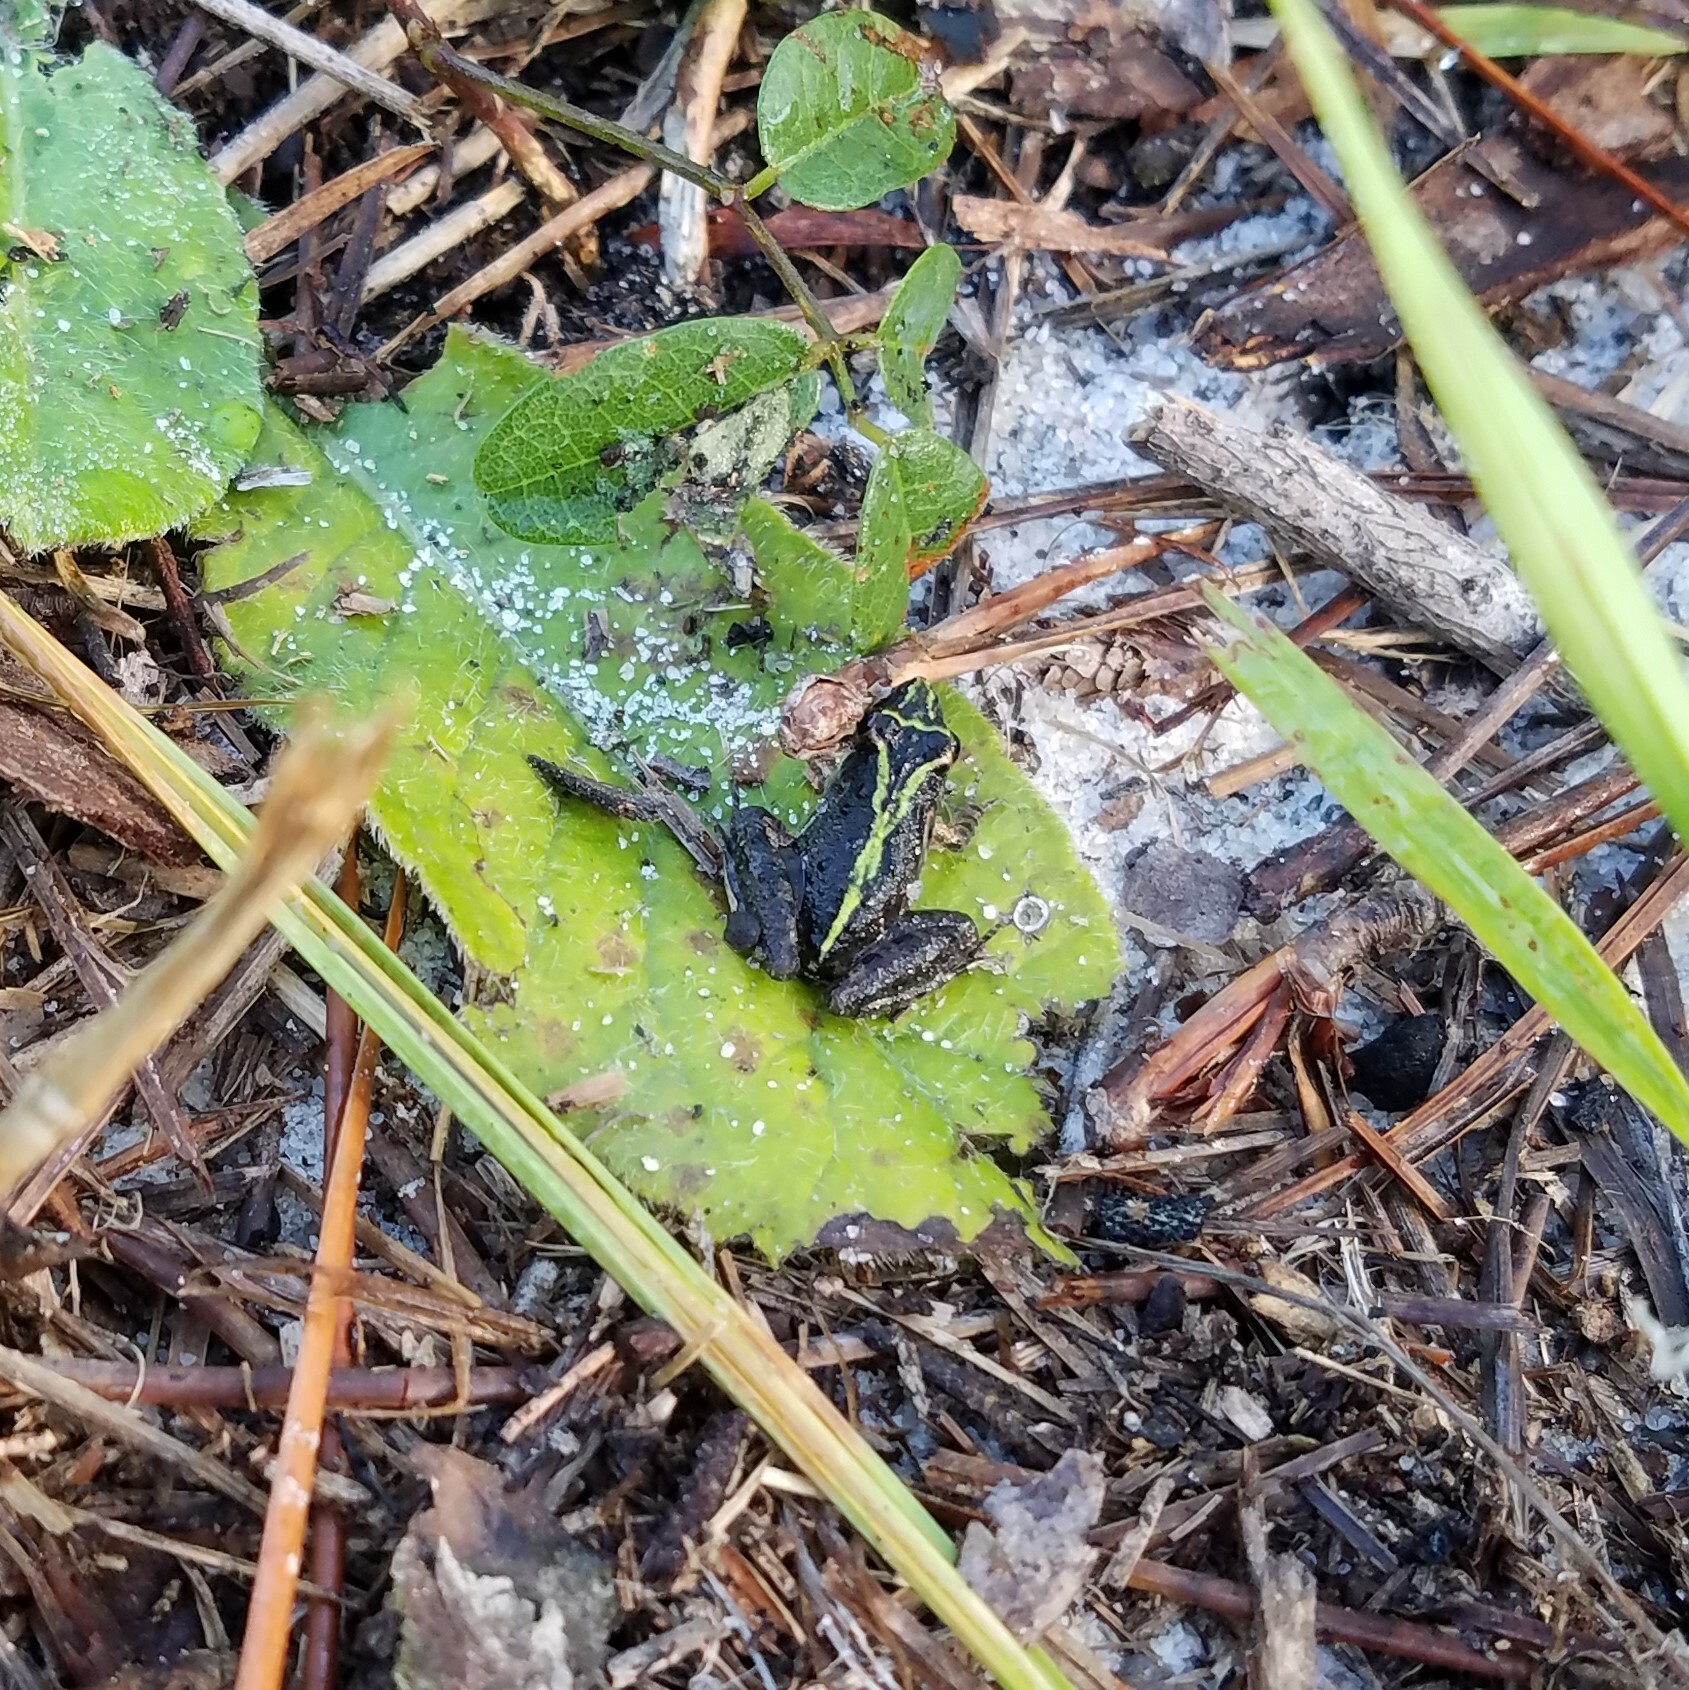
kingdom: Animalia
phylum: Chordata
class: Amphibia
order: Anura
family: Hylidae
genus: Acris
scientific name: Acris gryllus
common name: Southern cricket frog
